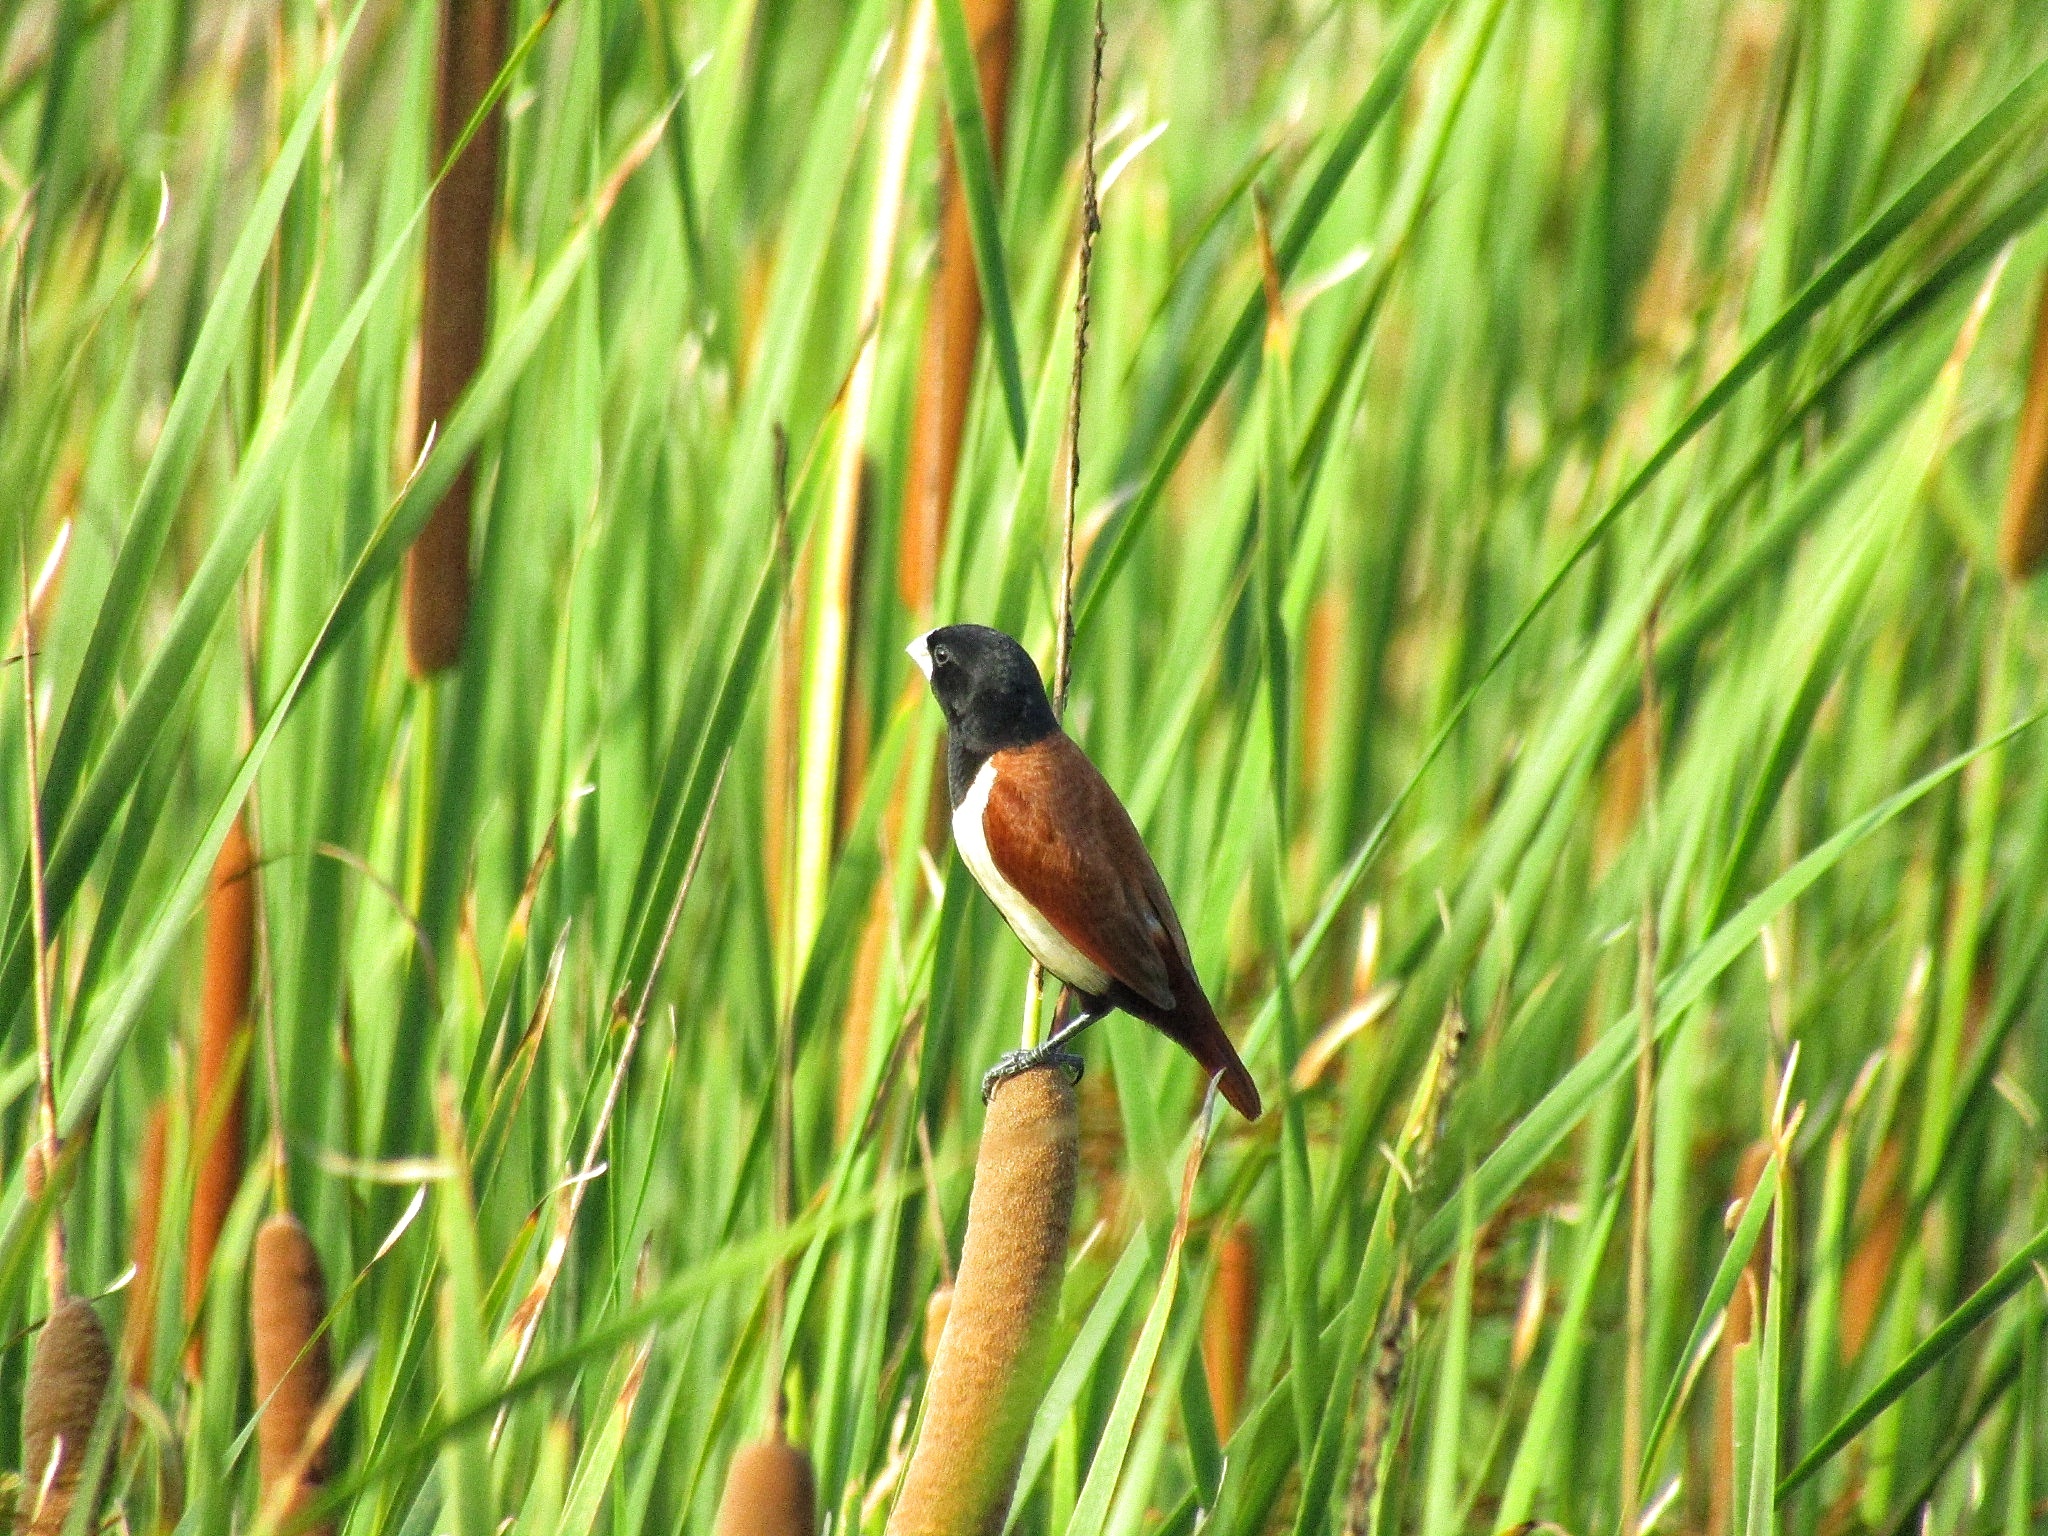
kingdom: Animalia
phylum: Chordata
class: Aves
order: Passeriformes
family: Estrildidae
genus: Lonchura
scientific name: Lonchura malacca
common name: Tricolored munia
